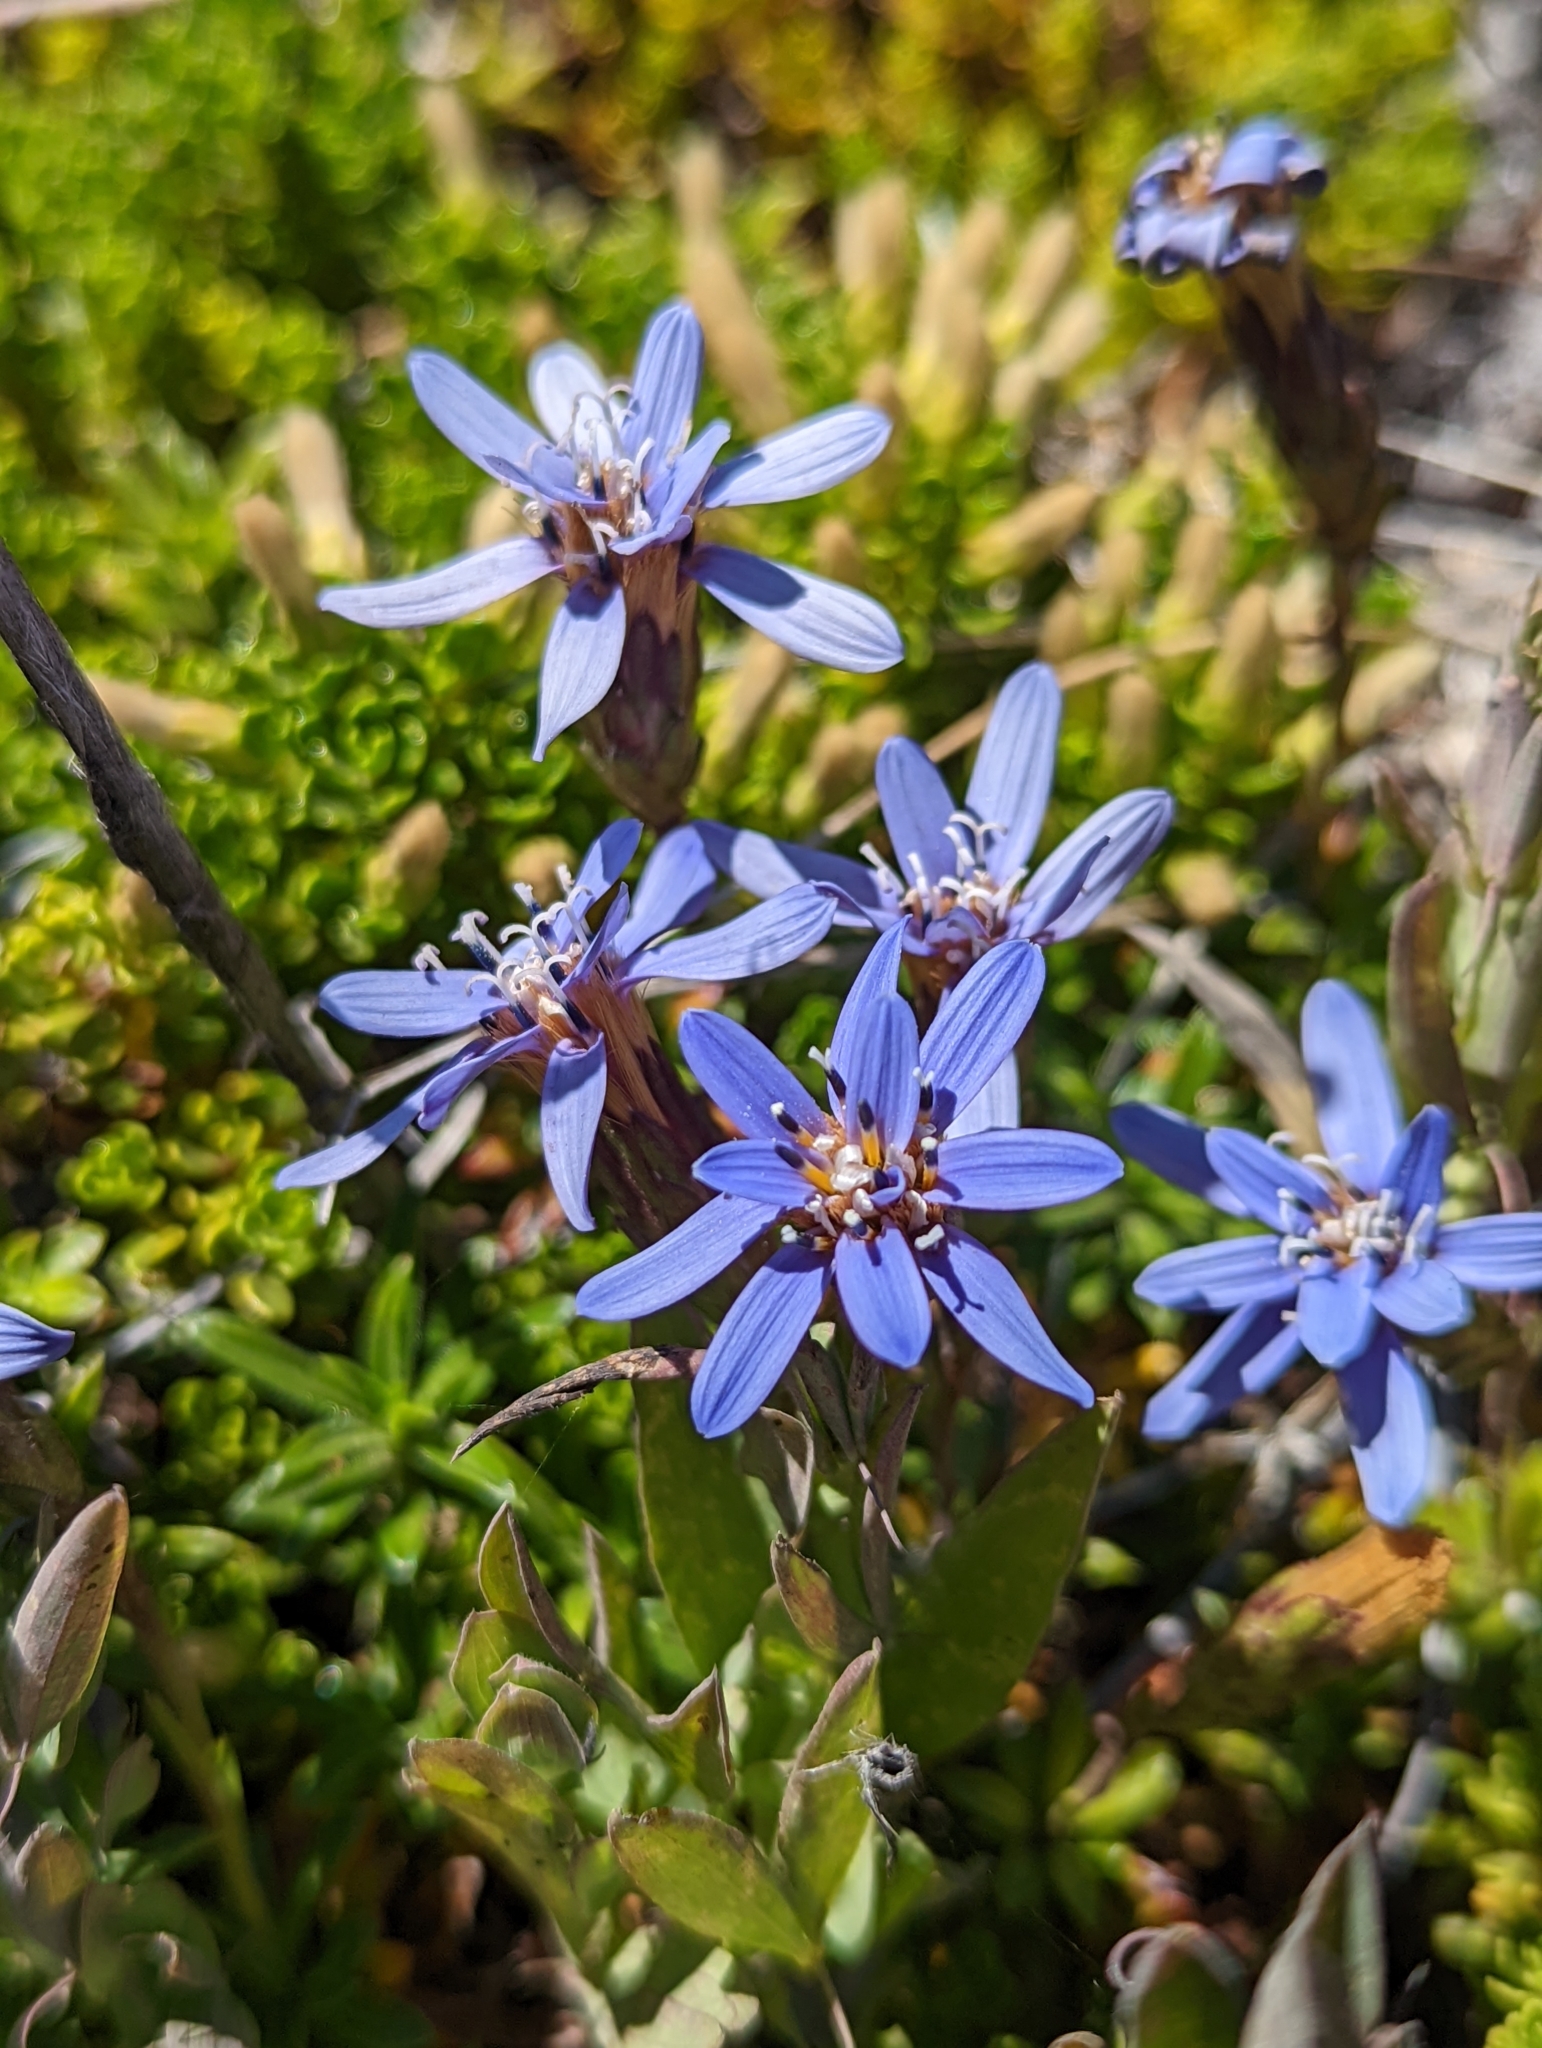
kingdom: Plantae
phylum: Tracheophyta
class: Magnoliopsida
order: Asterales
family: Asteraceae
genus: Perezia
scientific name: Perezia recurvata
